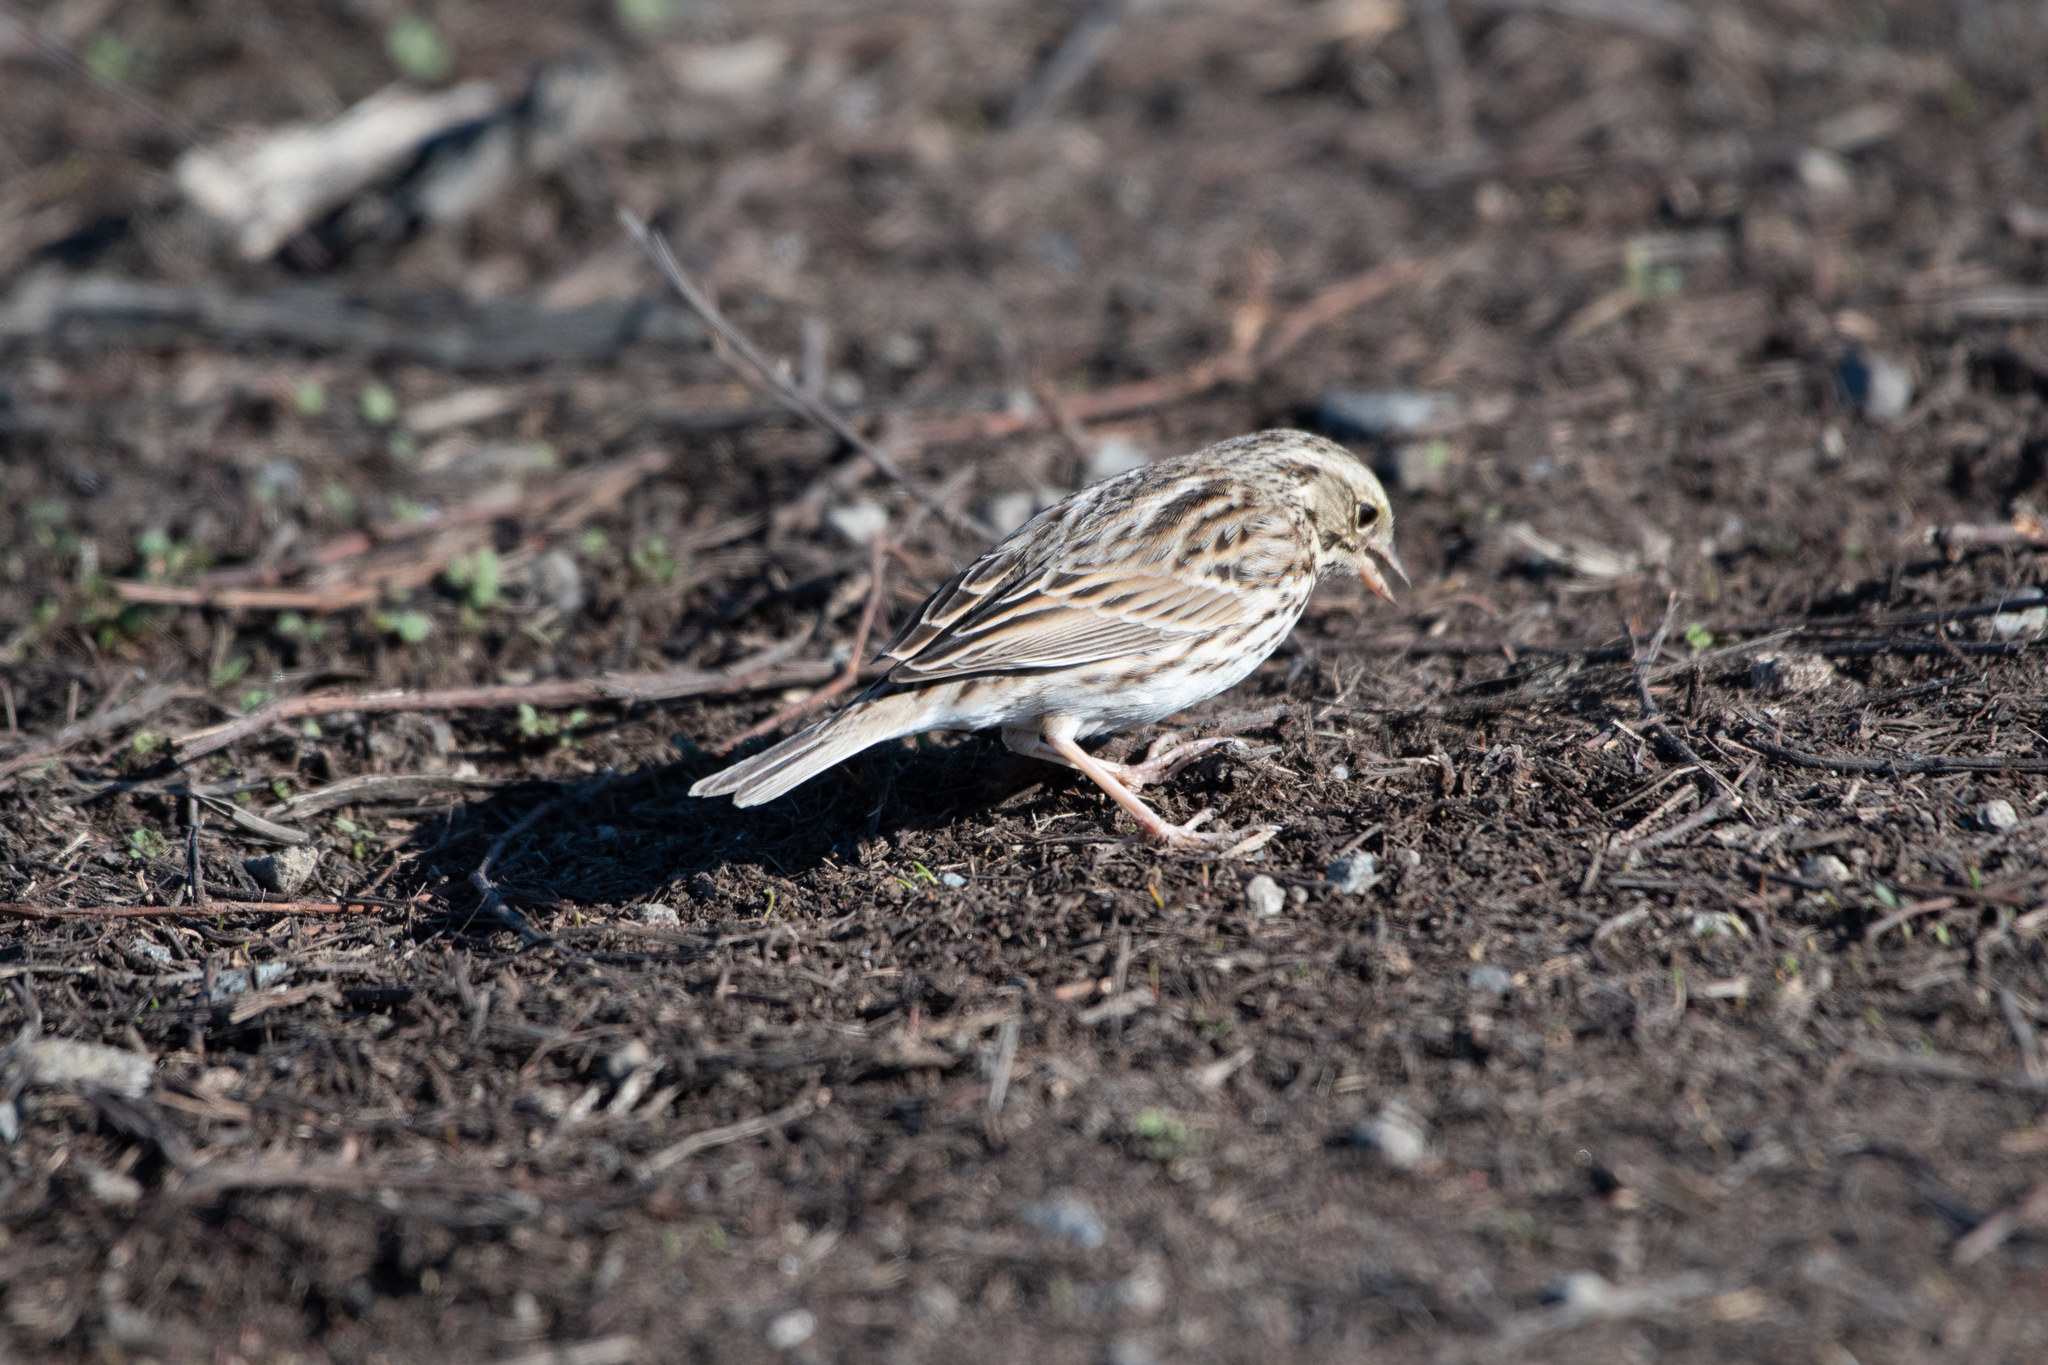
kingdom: Animalia
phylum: Chordata
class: Aves
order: Passeriformes
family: Passerellidae
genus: Passerculus
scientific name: Passerculus sandwichensis
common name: Savannah sparrow
